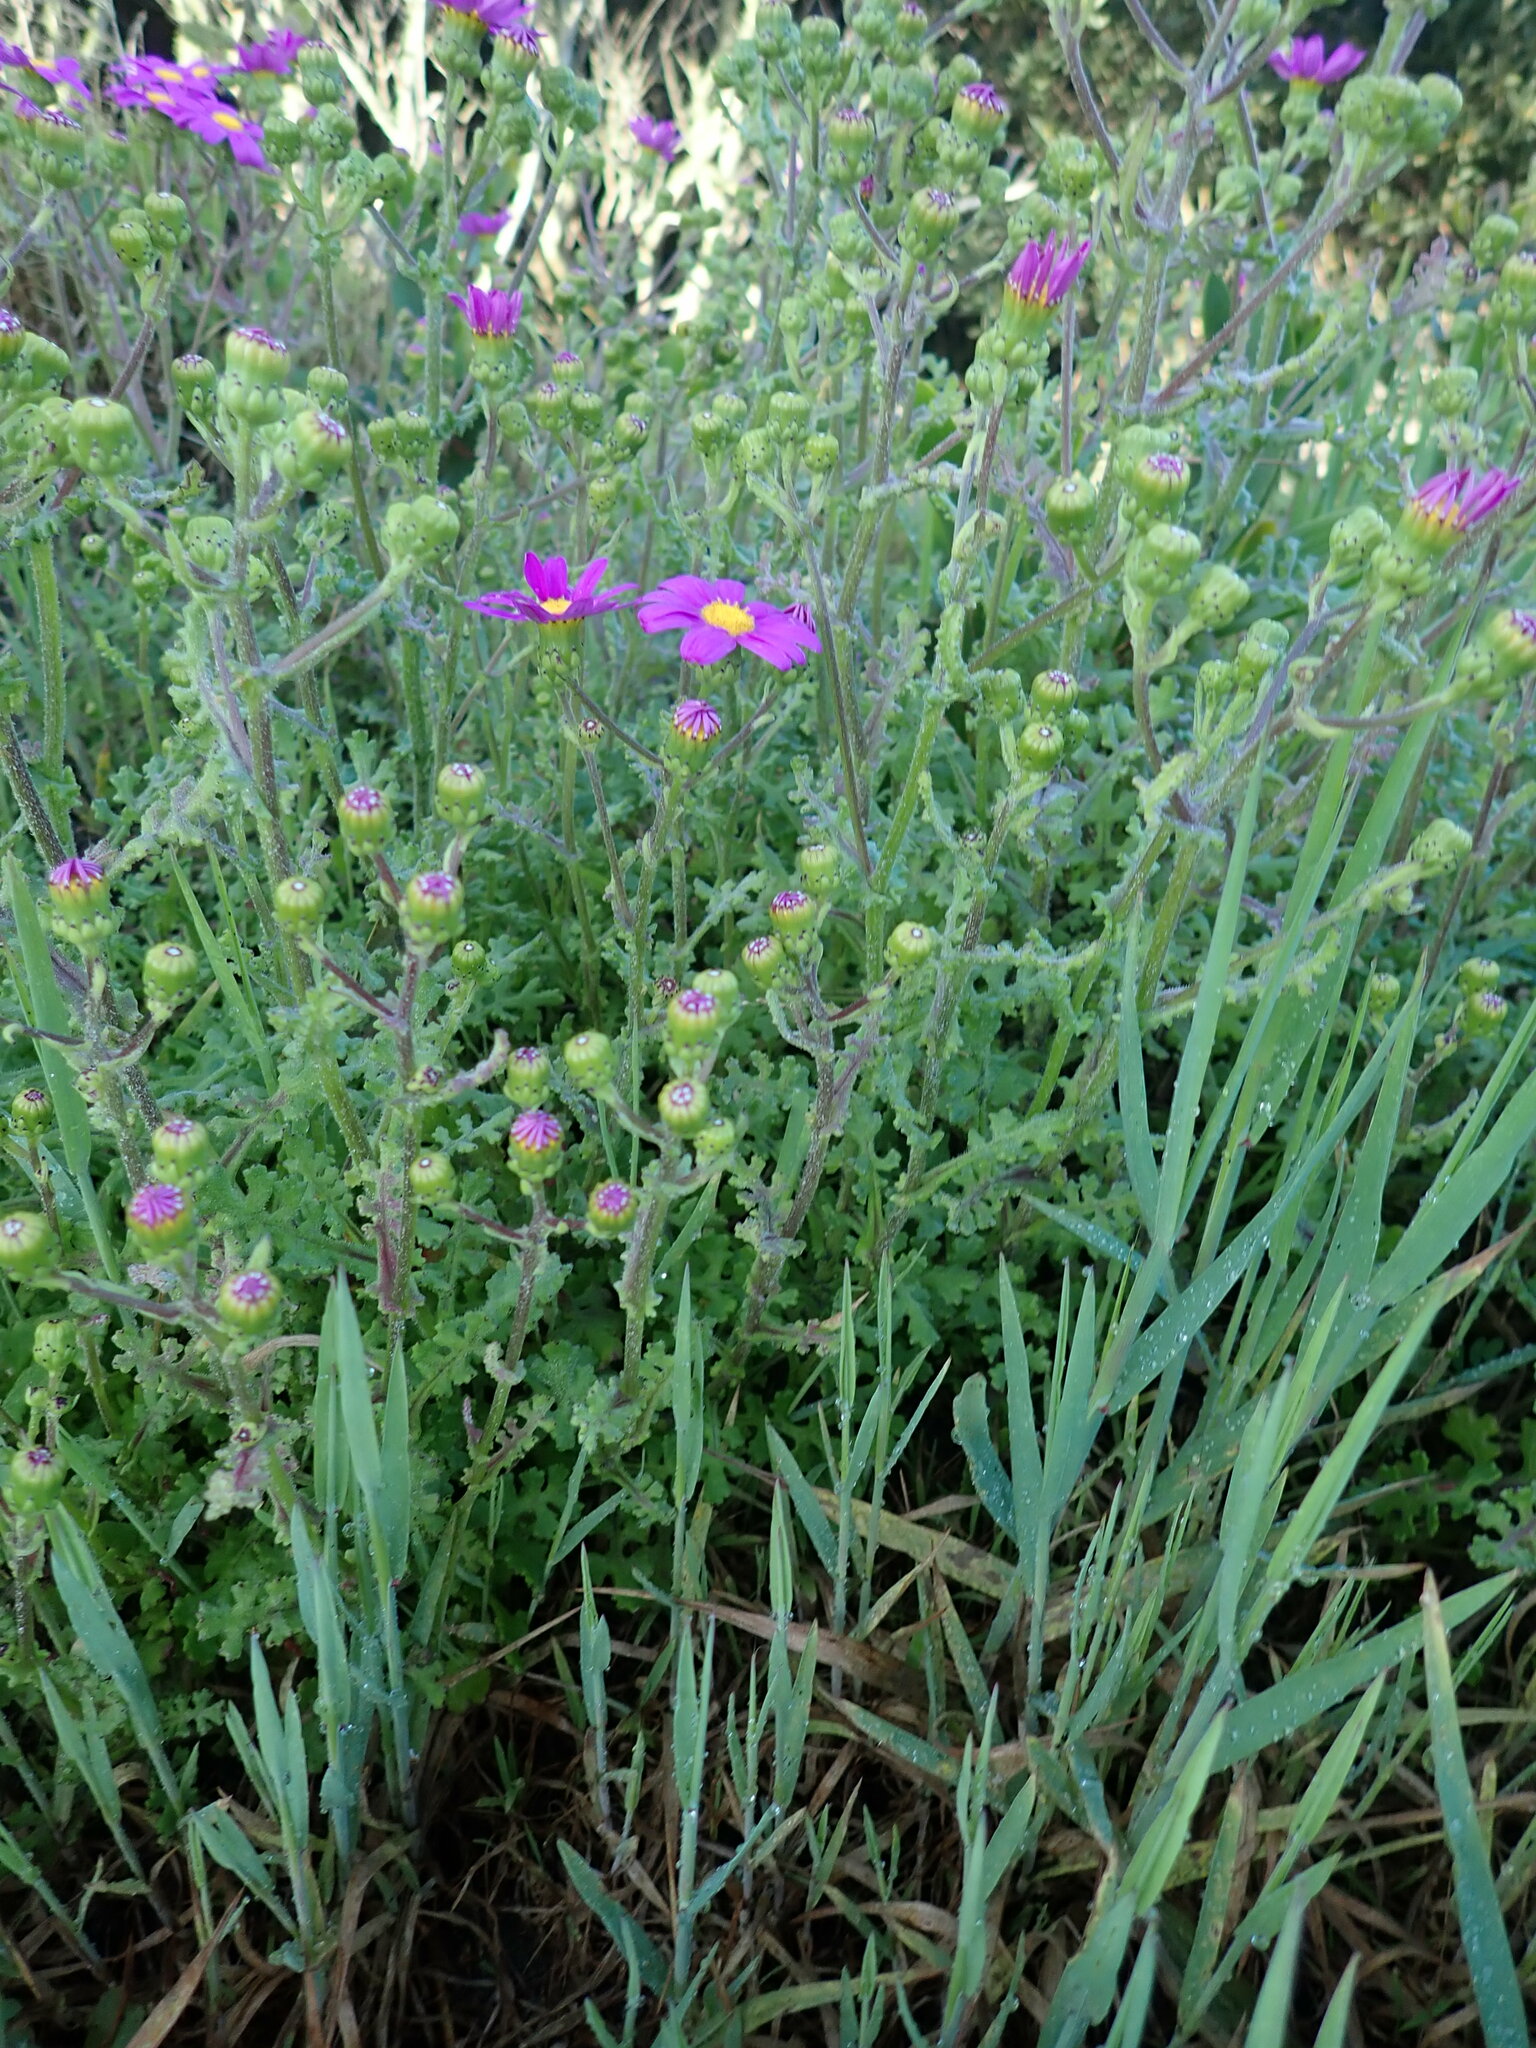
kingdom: Plantae
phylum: Tracheophyta
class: Magnoliopsida
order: Asterales
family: Asteraceae
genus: Senecio
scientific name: Senecio elegans
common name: Purple groundsel
